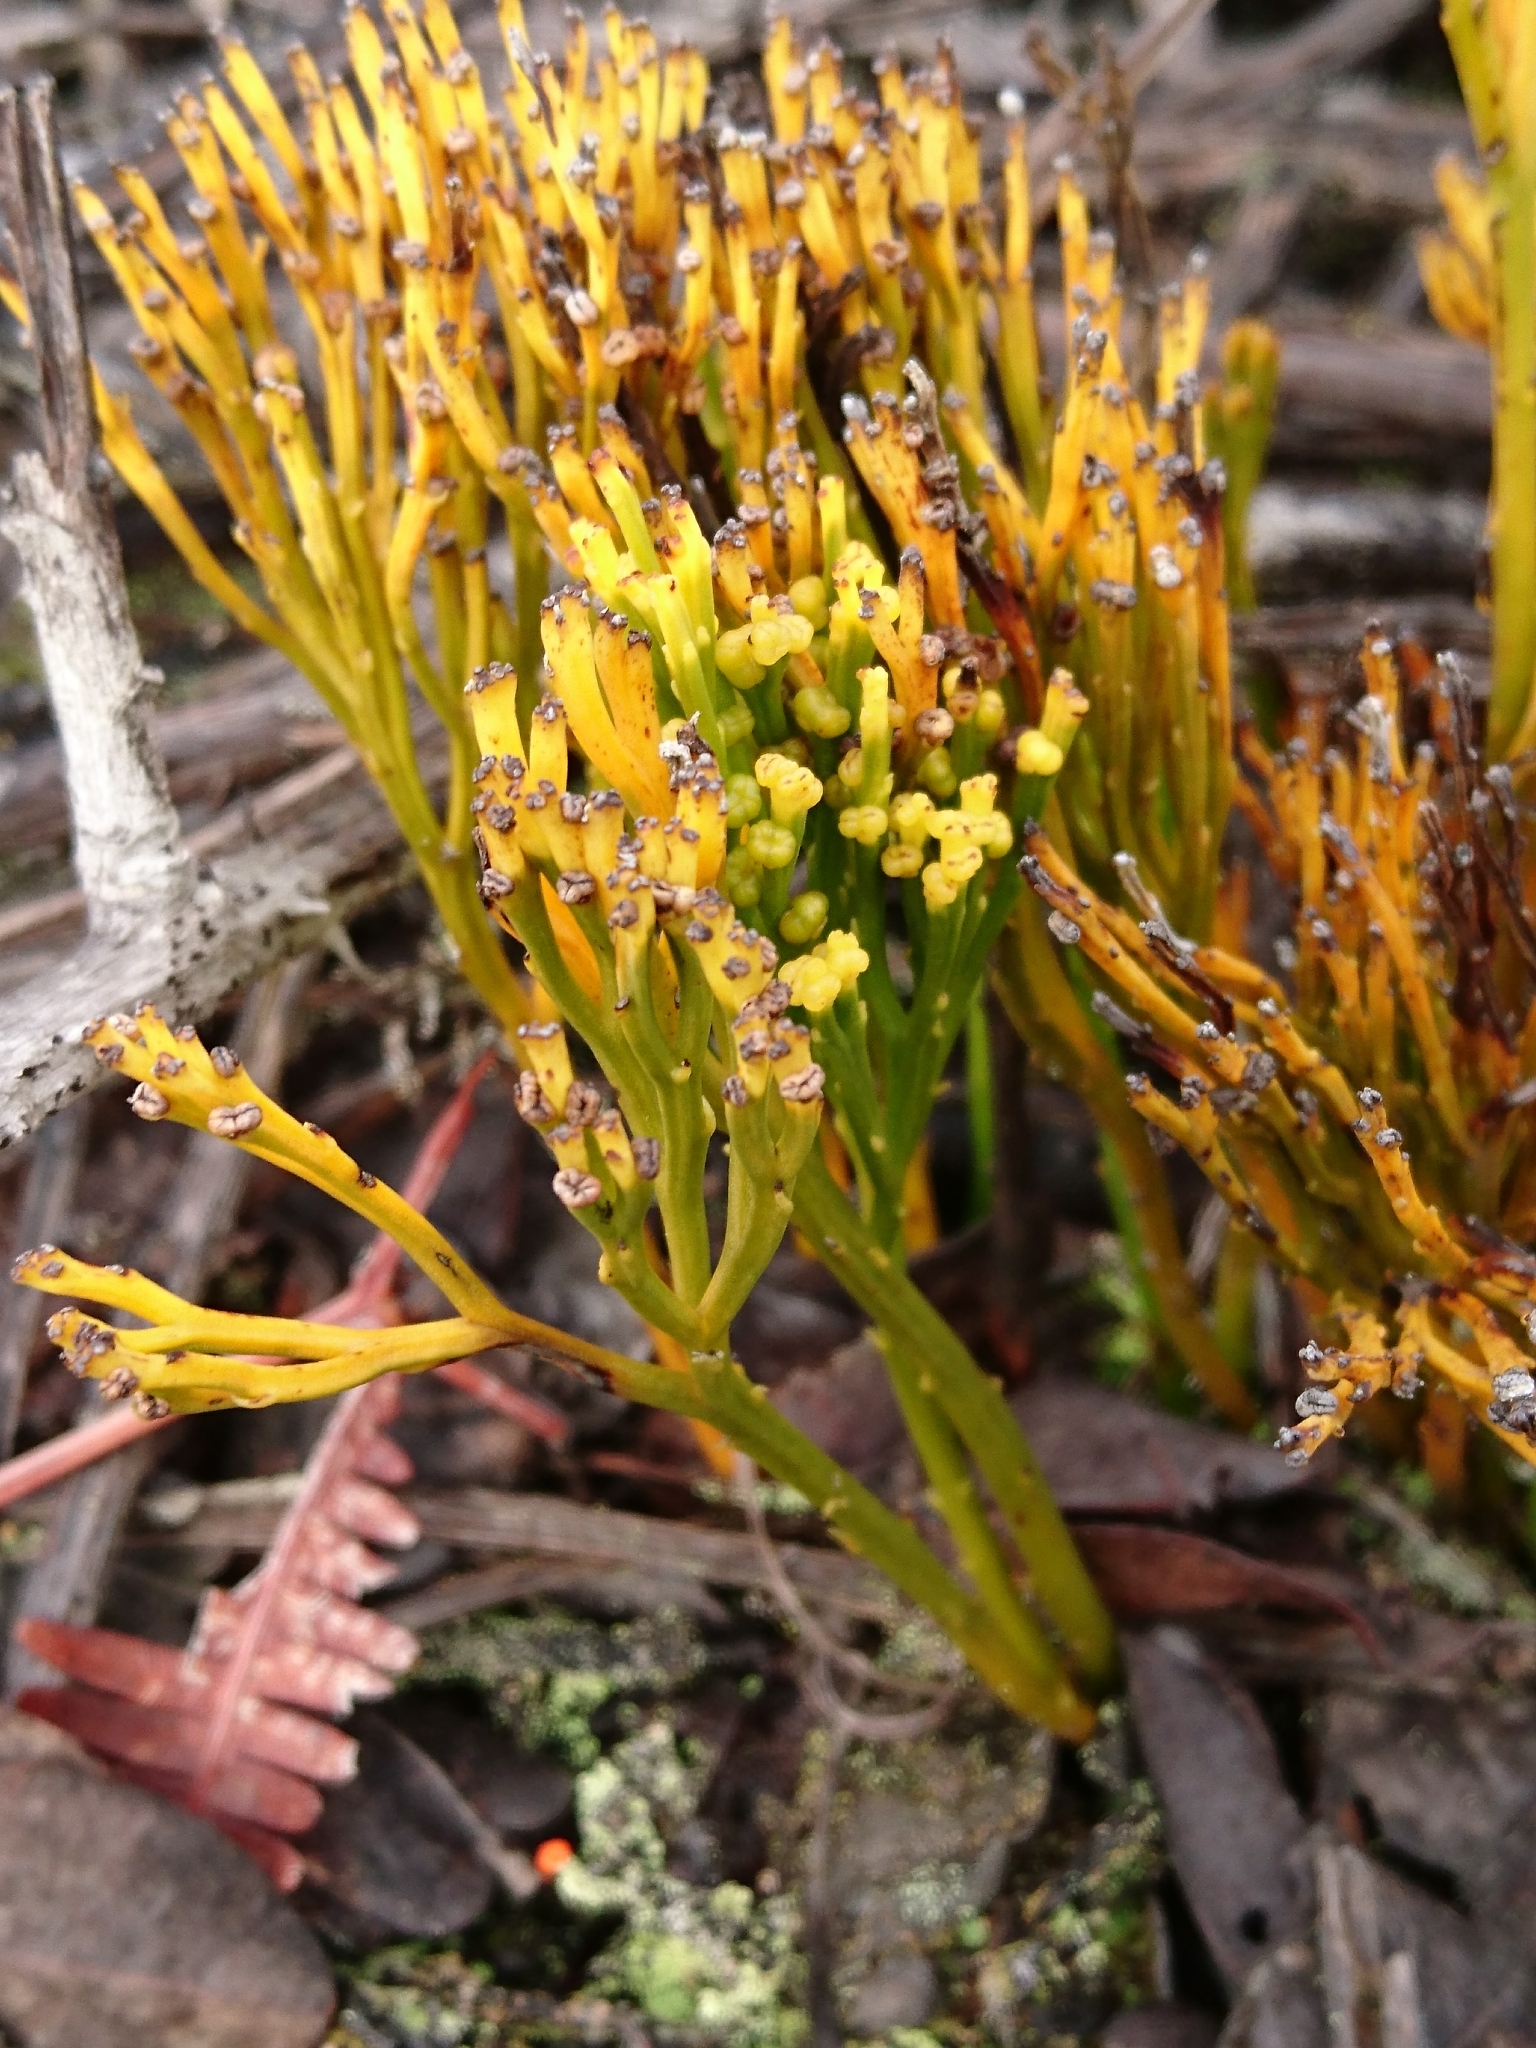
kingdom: Plantae
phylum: Tracheophyta
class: Polypodiopsida
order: Psilotales
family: Psilotaceae
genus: Psilotum
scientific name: Psilotum nudum
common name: Skeleton fork fern
